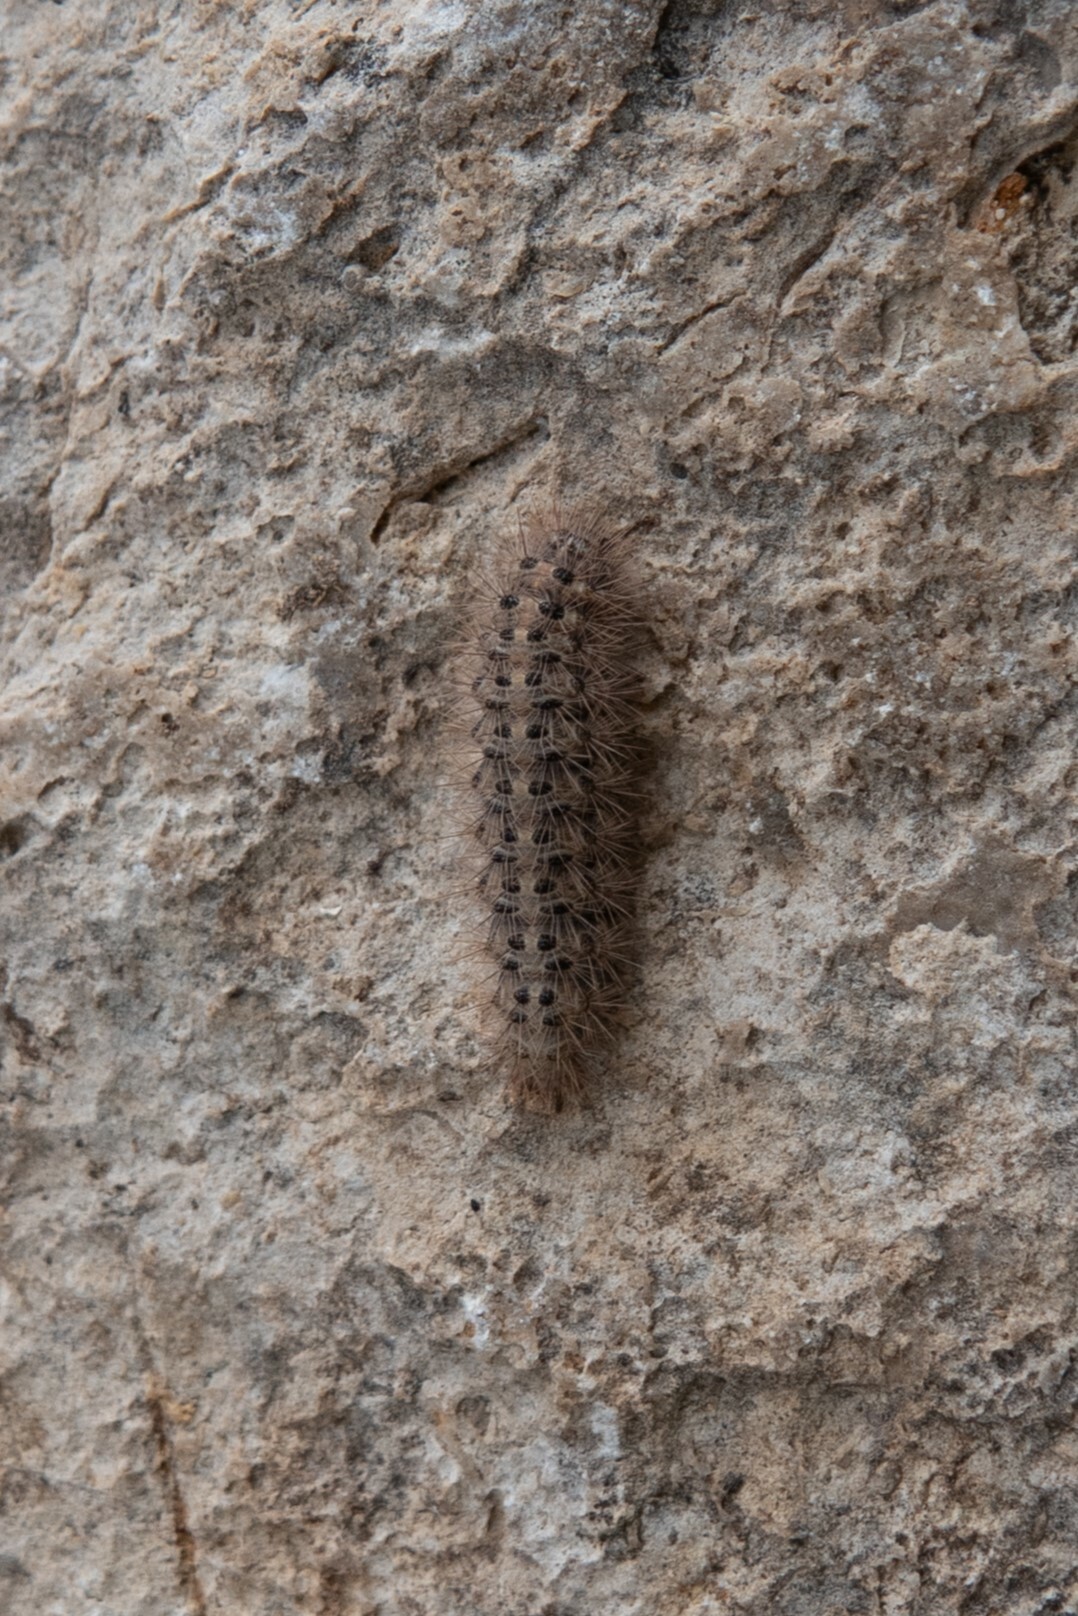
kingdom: Animalia
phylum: Arthropoda
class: Insecta
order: Lepidoptera
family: Erebidae
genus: Cymbalophora
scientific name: Cymbalophora pudica
